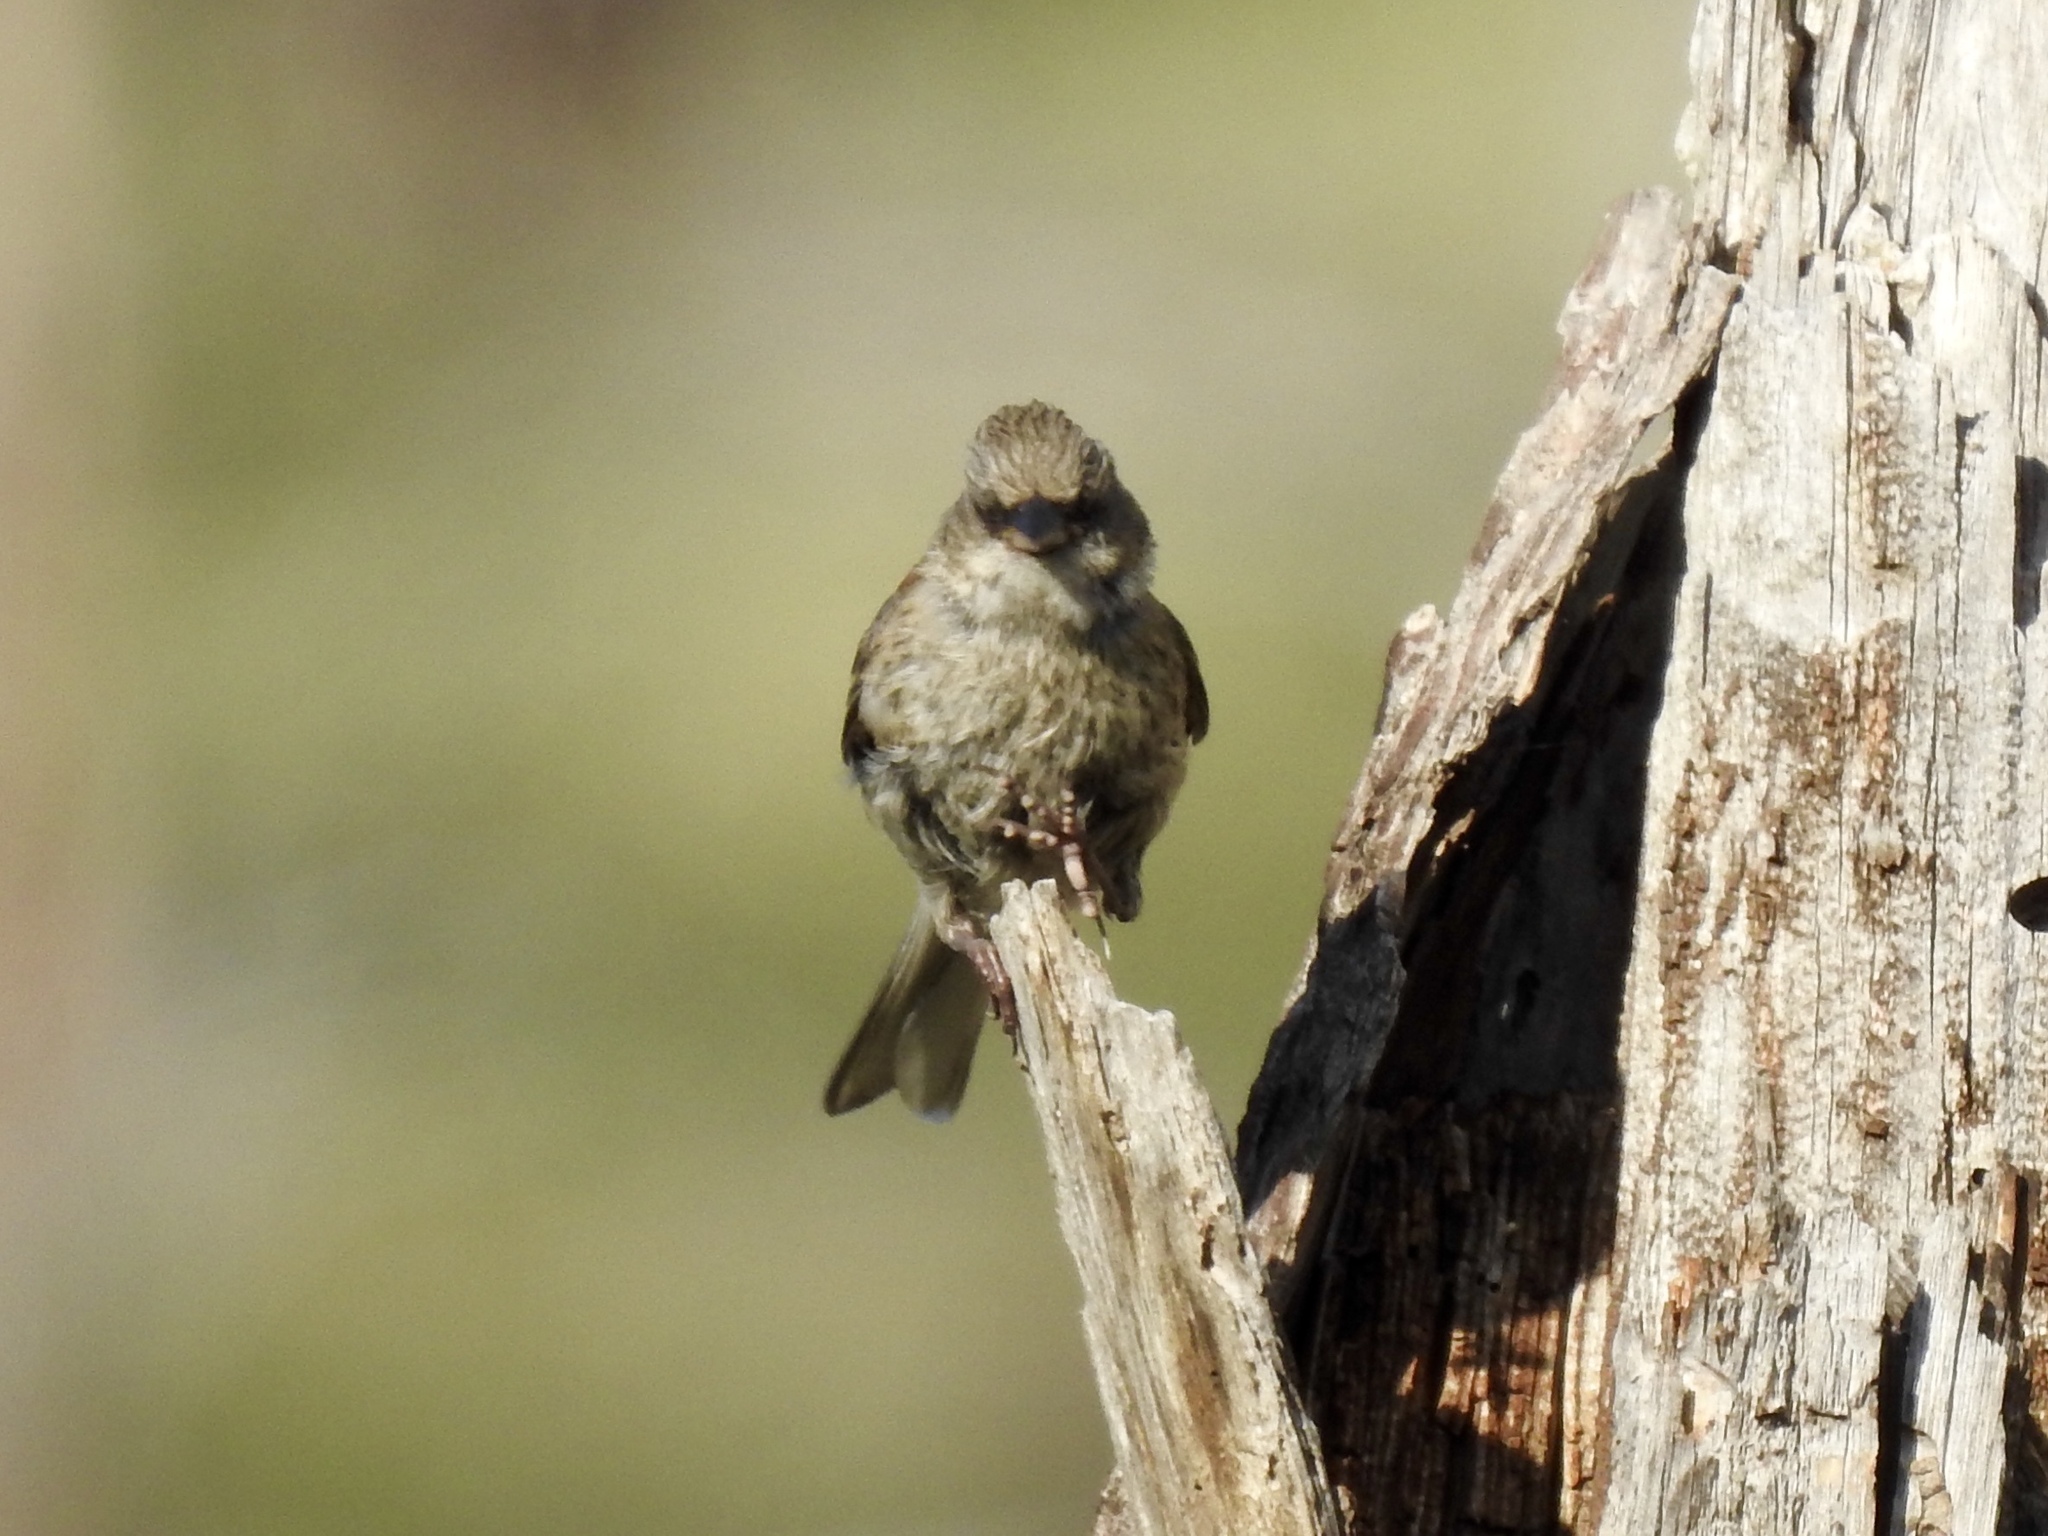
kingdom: Animalia
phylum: Chordata
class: Aves
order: Passeriformes
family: Passerellidae
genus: Junco
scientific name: Junco hyemalis
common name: Dark-eyed junco
